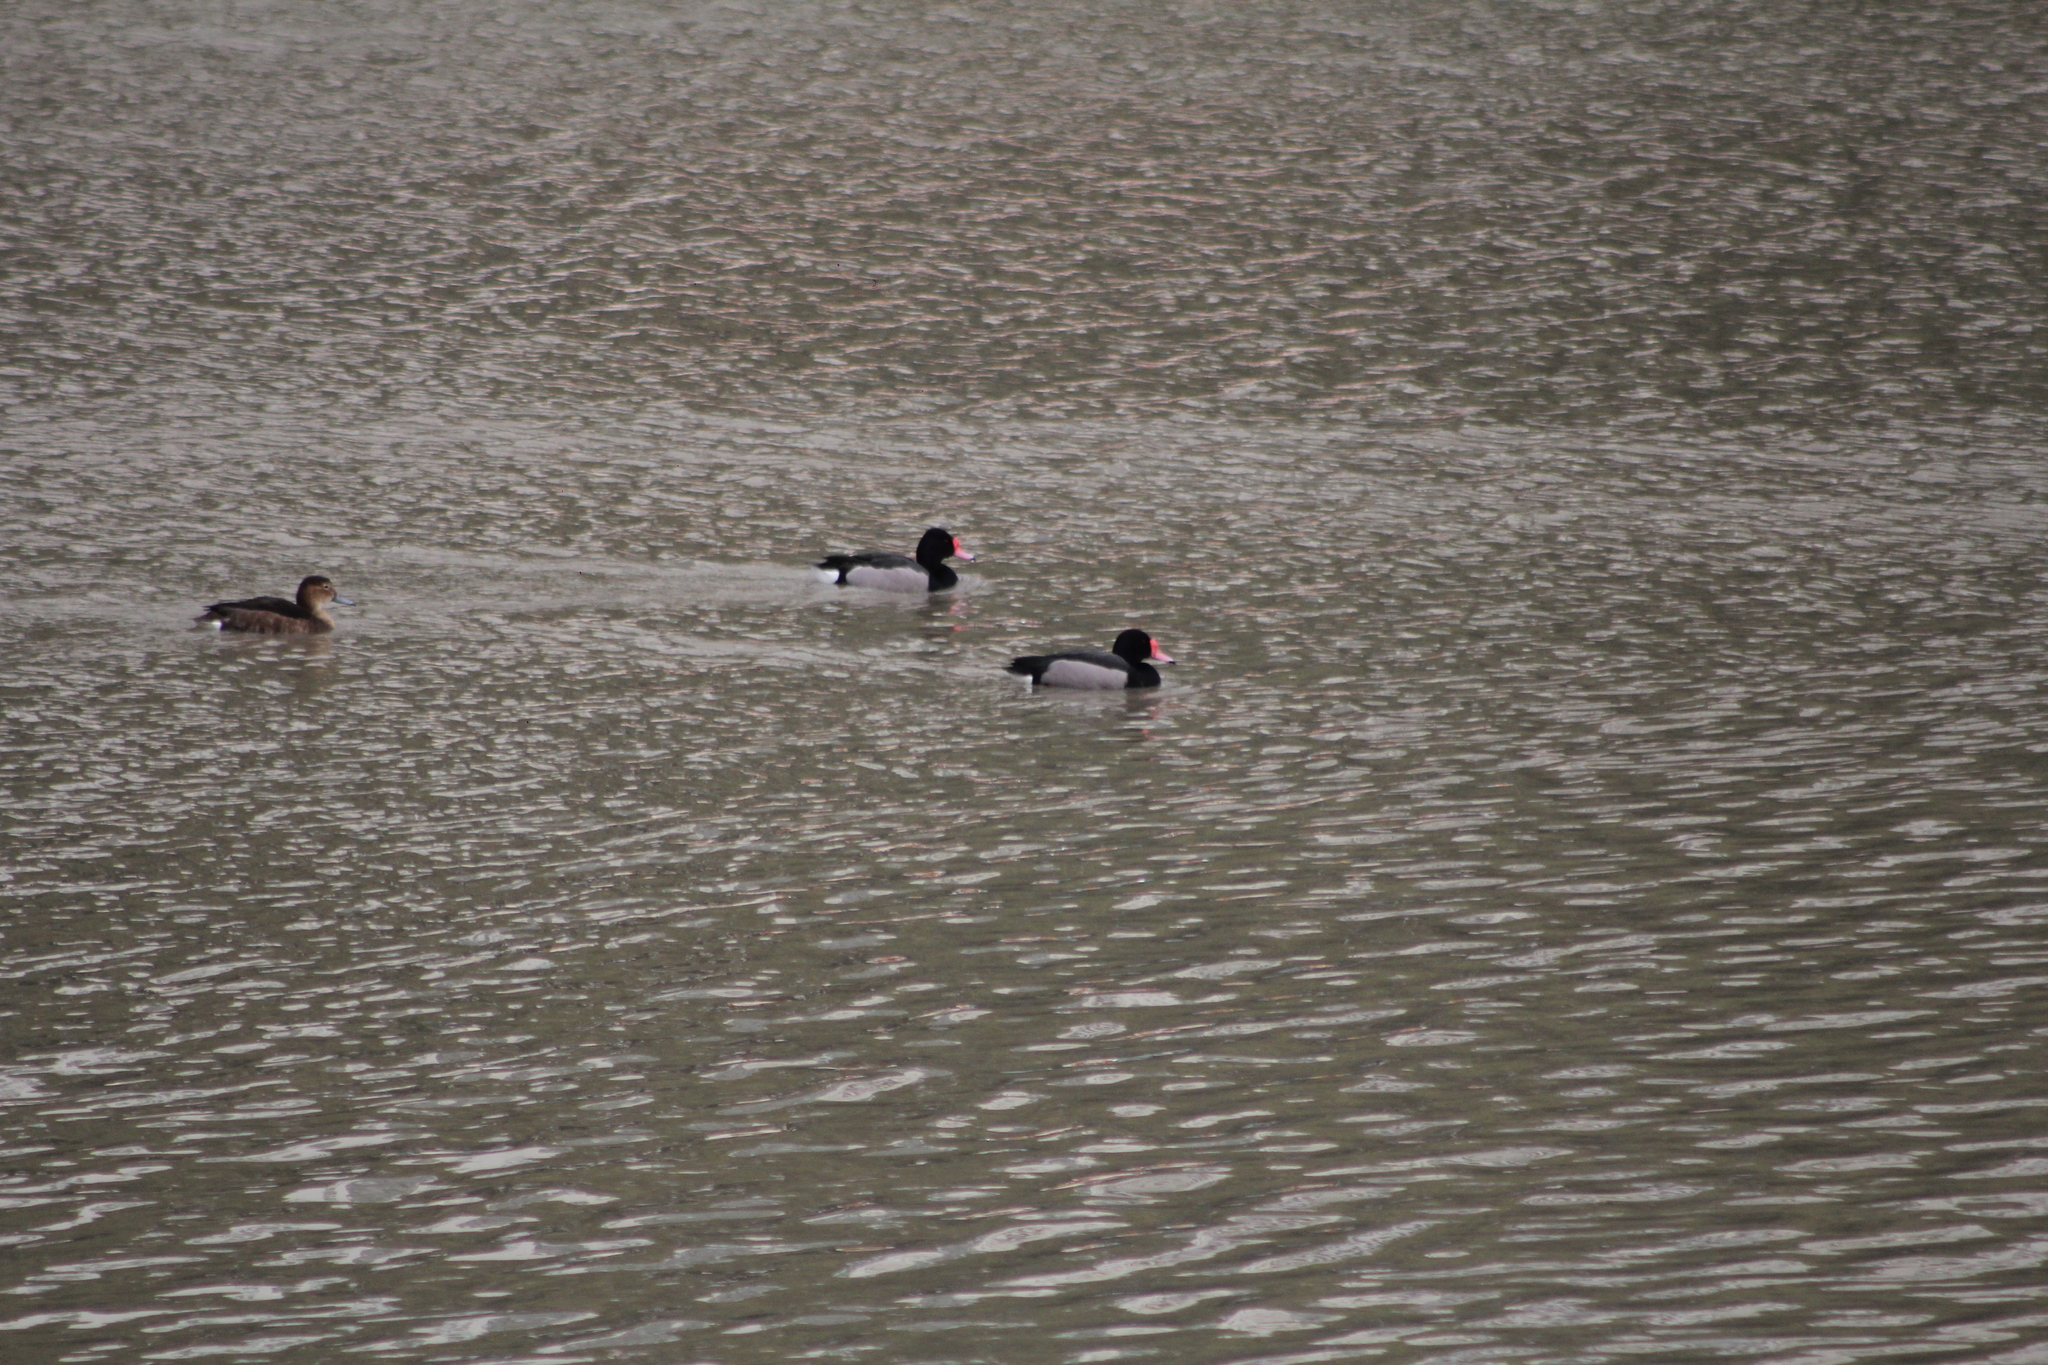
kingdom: Animalia
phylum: Chordata
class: Aves
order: Anseriformes
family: Anatidae
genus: Netta
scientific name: Netta peposaca
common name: Rosy-billed pochard
